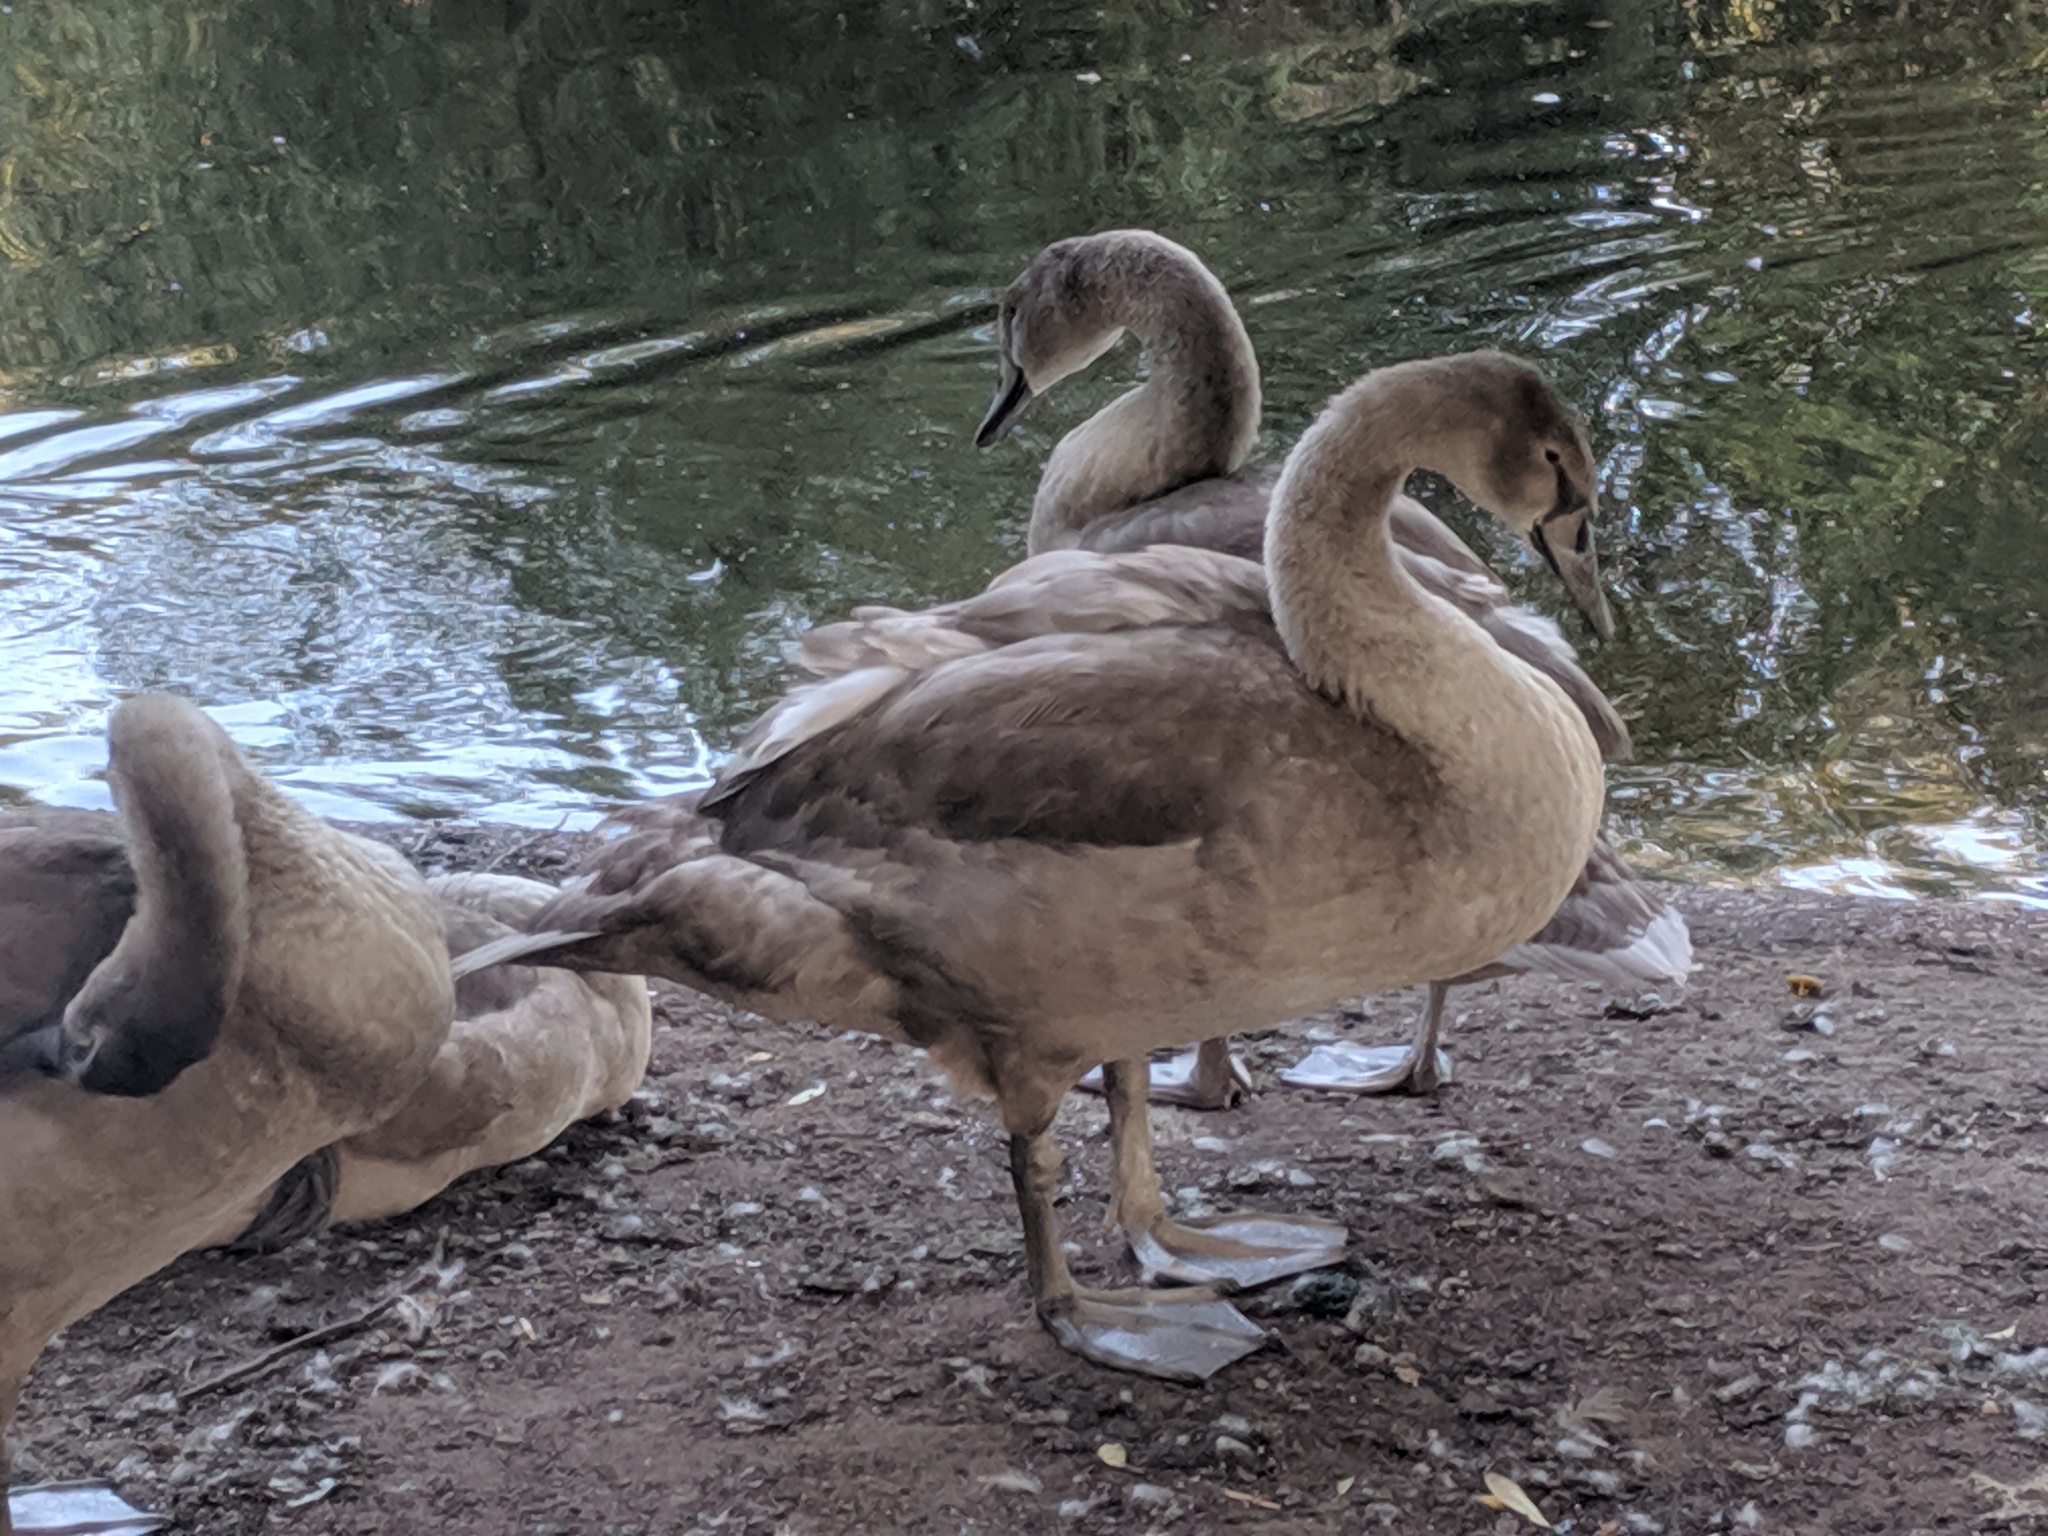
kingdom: Animalia
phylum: Chordata
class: Aves
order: Anseriformes
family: Anatidae
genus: Cygnus
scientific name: Cygnus olor
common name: Mute swan
